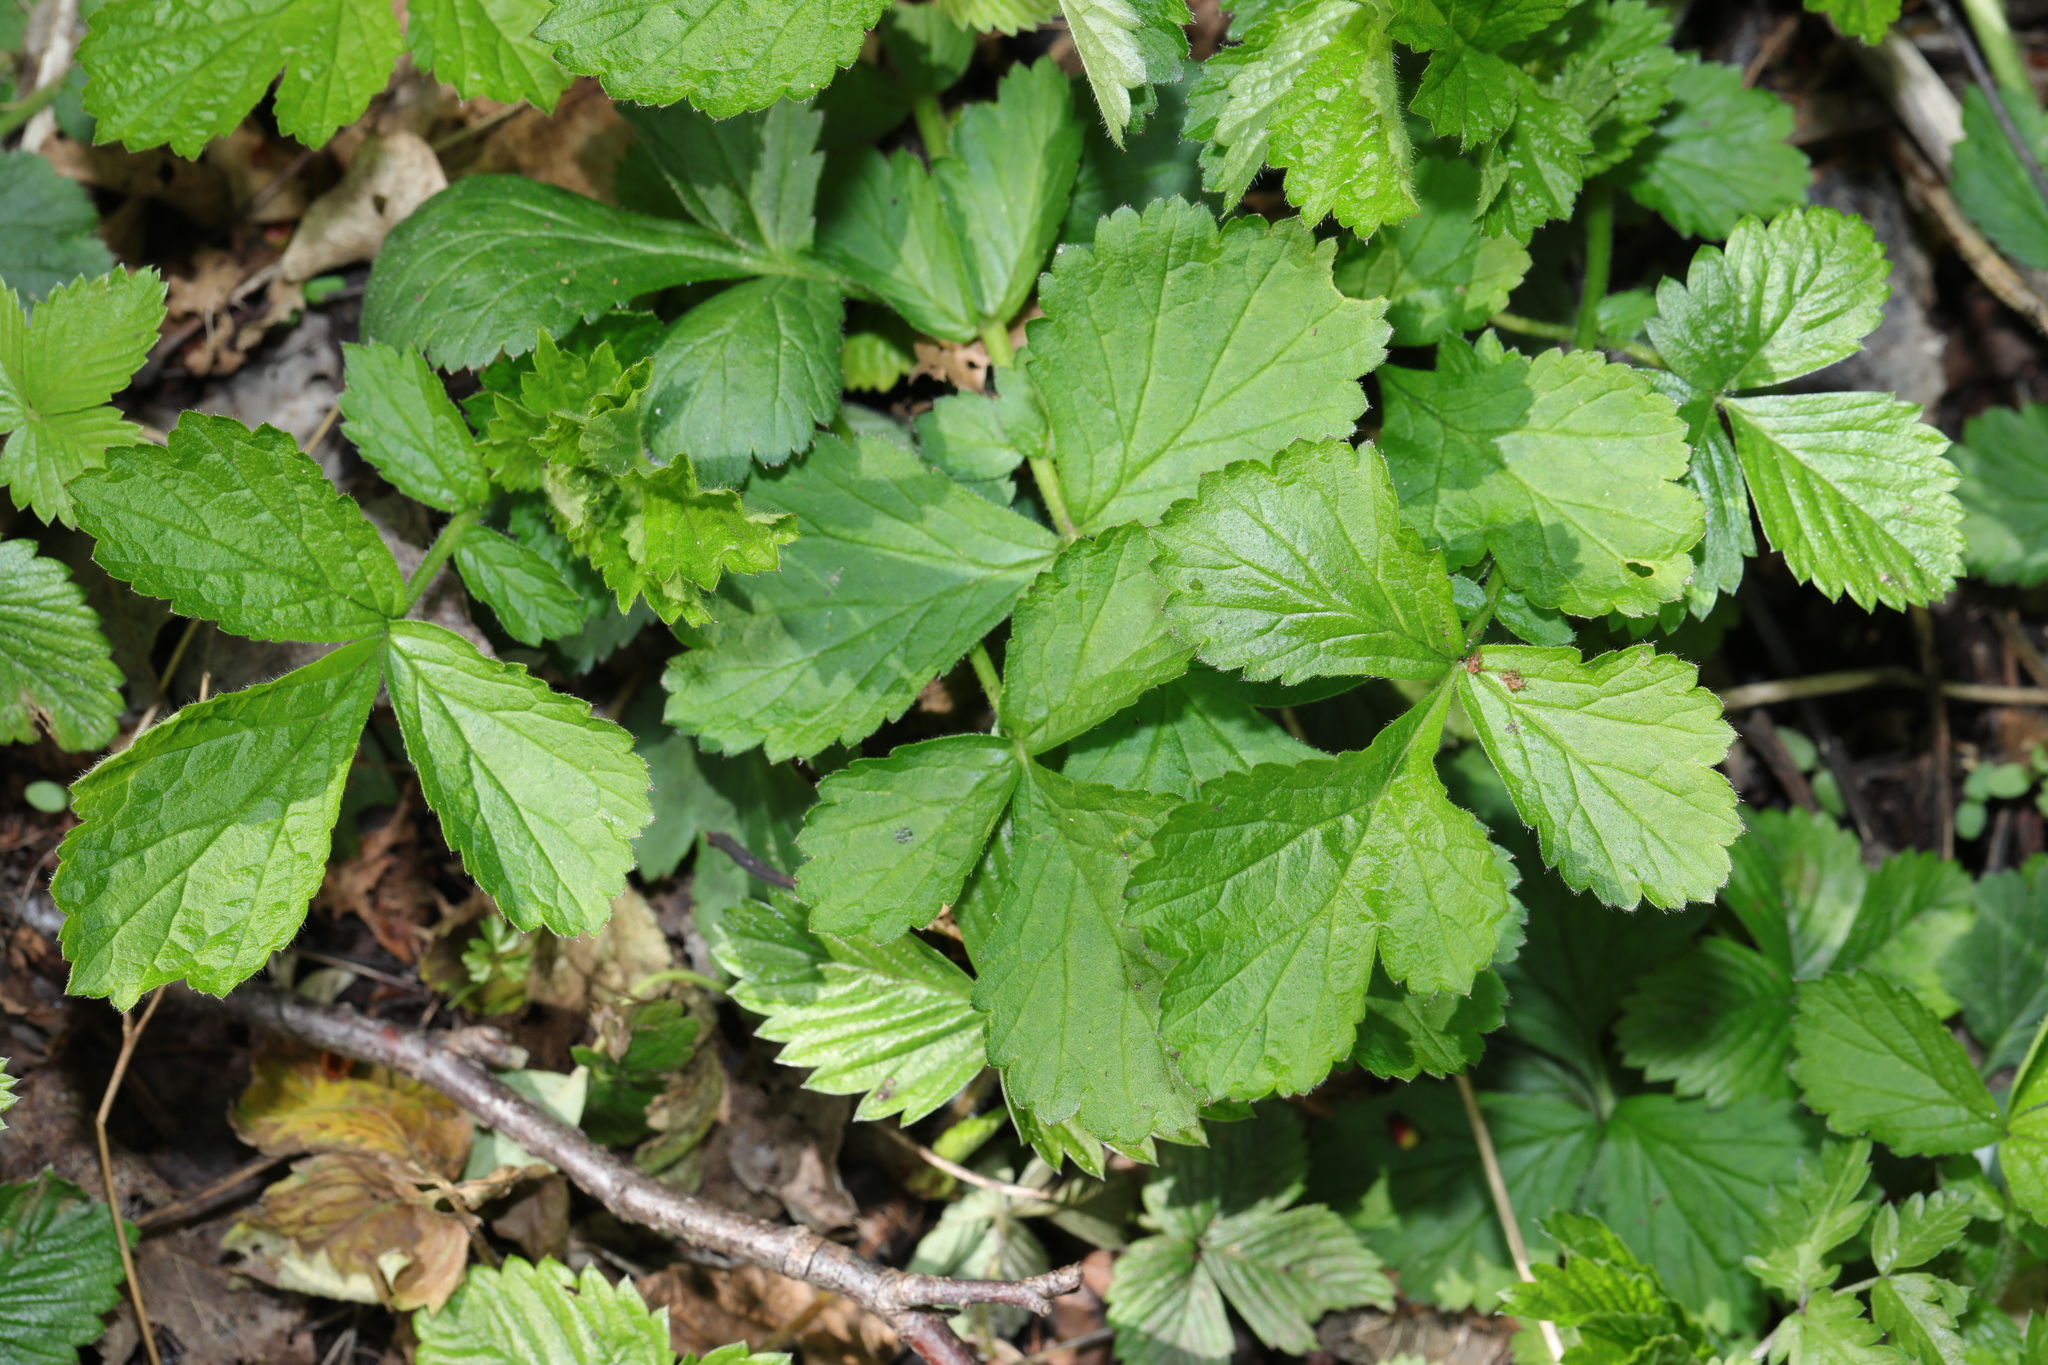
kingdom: Plantae
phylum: Tracheophyta
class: Magnoliopsida
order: Rosales
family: Rosaceae
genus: Geum
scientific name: Geum urbanum
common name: Wood avens
